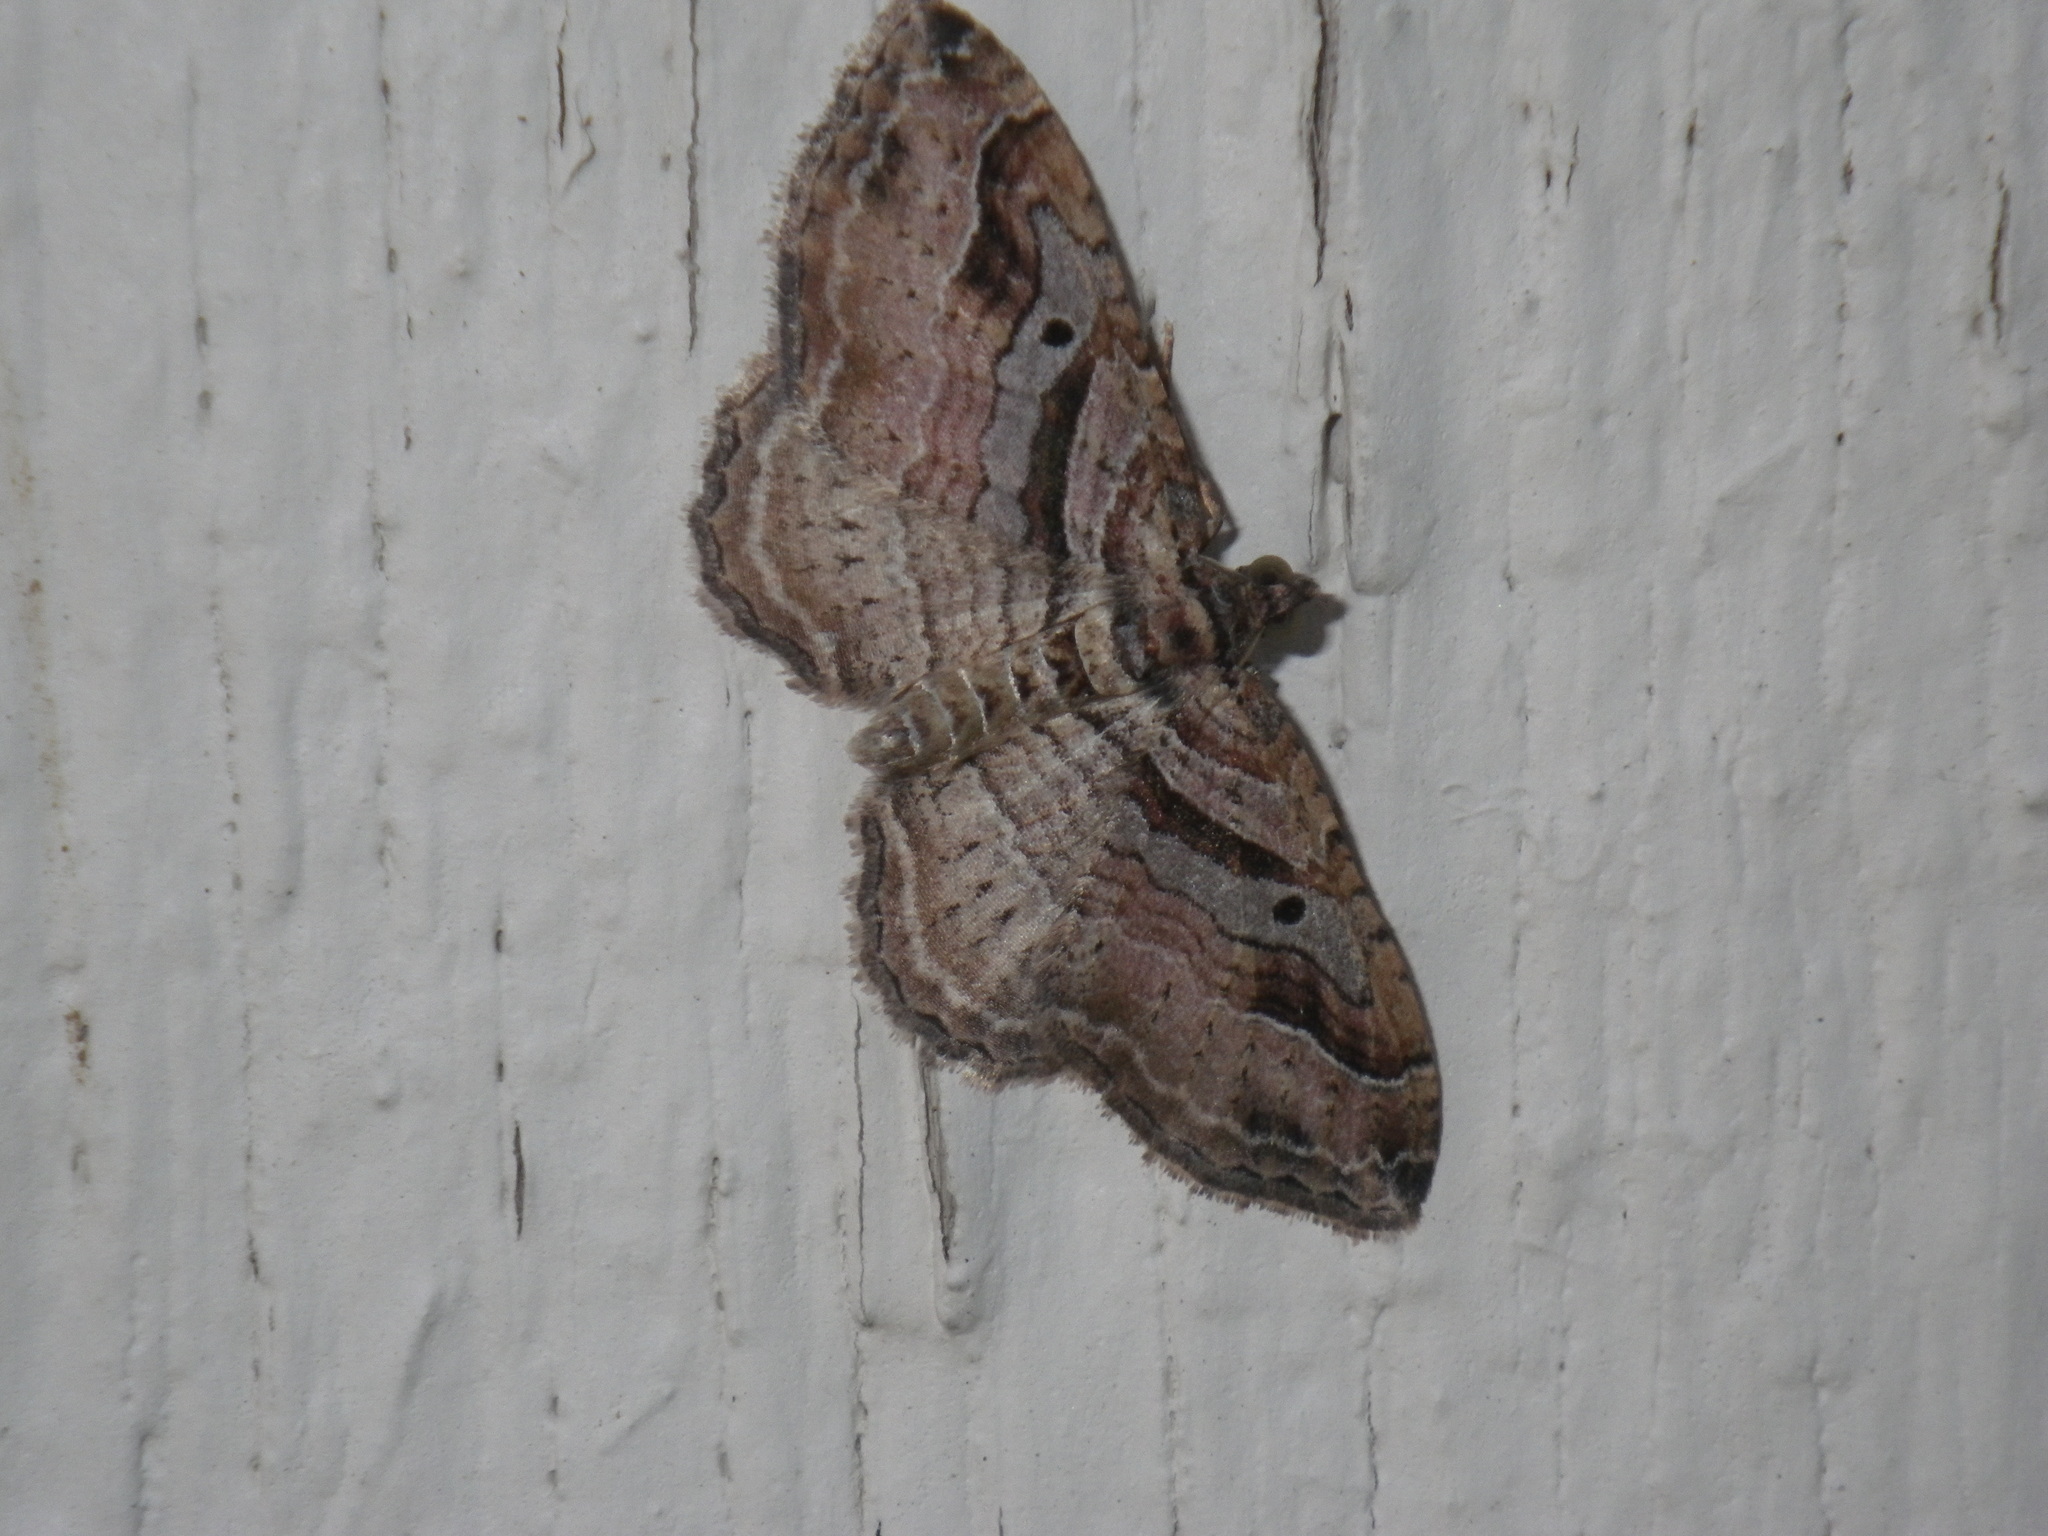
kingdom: Animalia
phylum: Arthropoda
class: Insecta
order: Lepidoptera
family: Geometridae
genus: Costaconvexa
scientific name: Costaconvexa centrostrigaria
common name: Bent-line carpet
